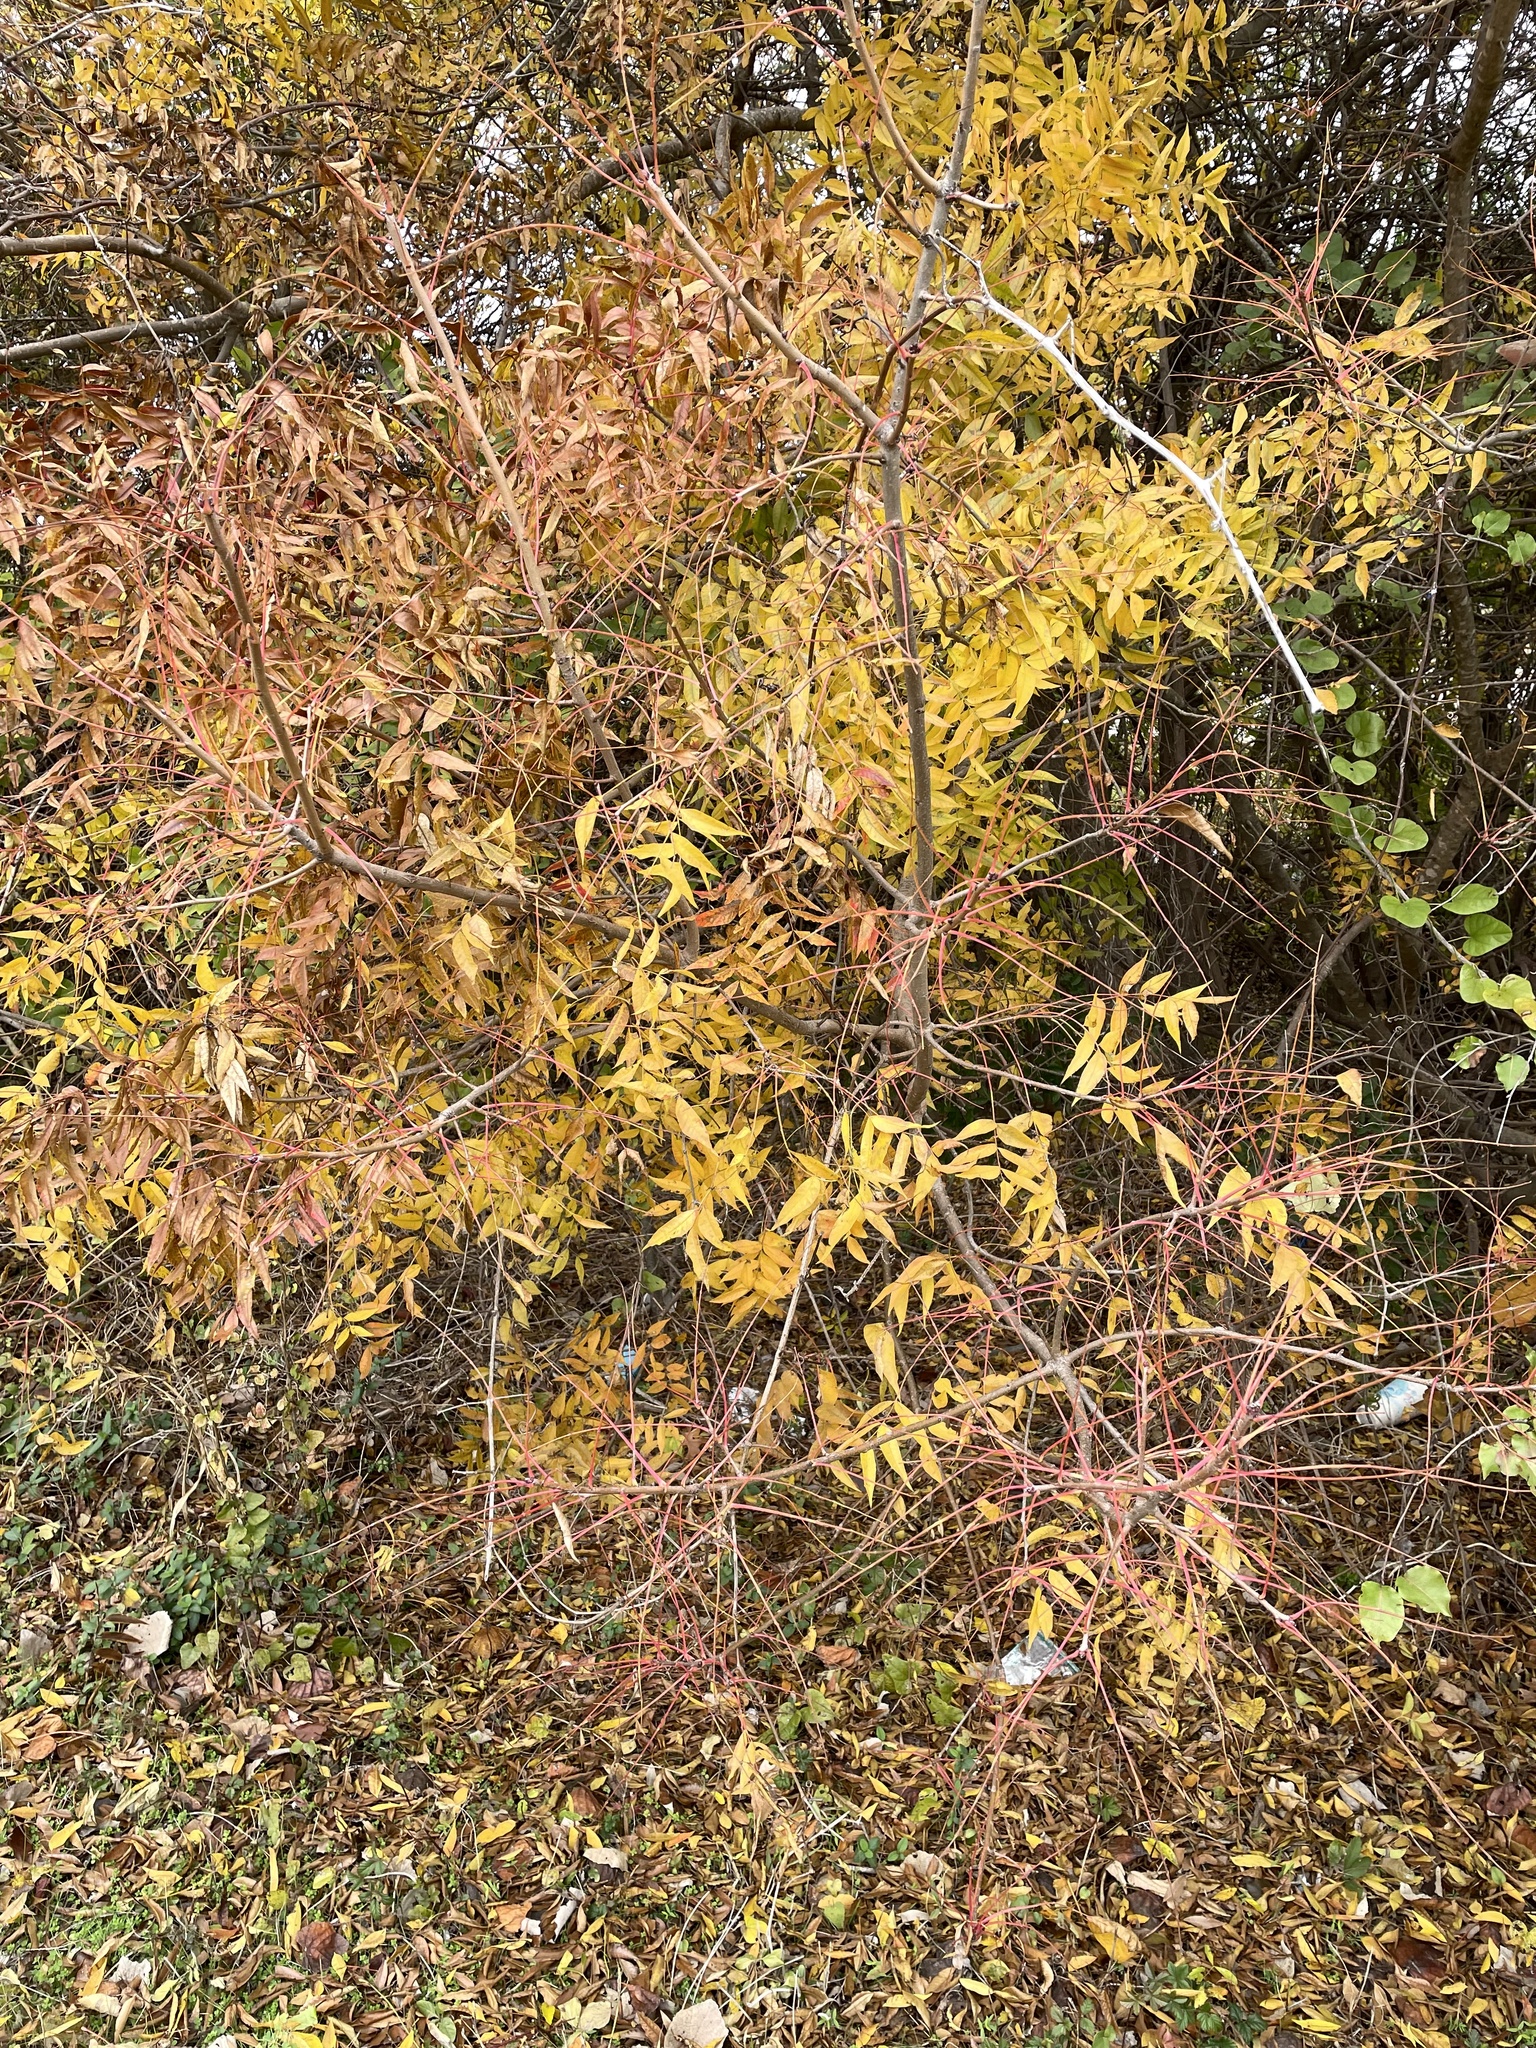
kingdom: Plantae
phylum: Tracheophyta
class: Magnoliopsida
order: Sapindales
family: Anacardiaceae
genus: Pistacia
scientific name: Pistacia chinensis
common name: Chinese pistache
